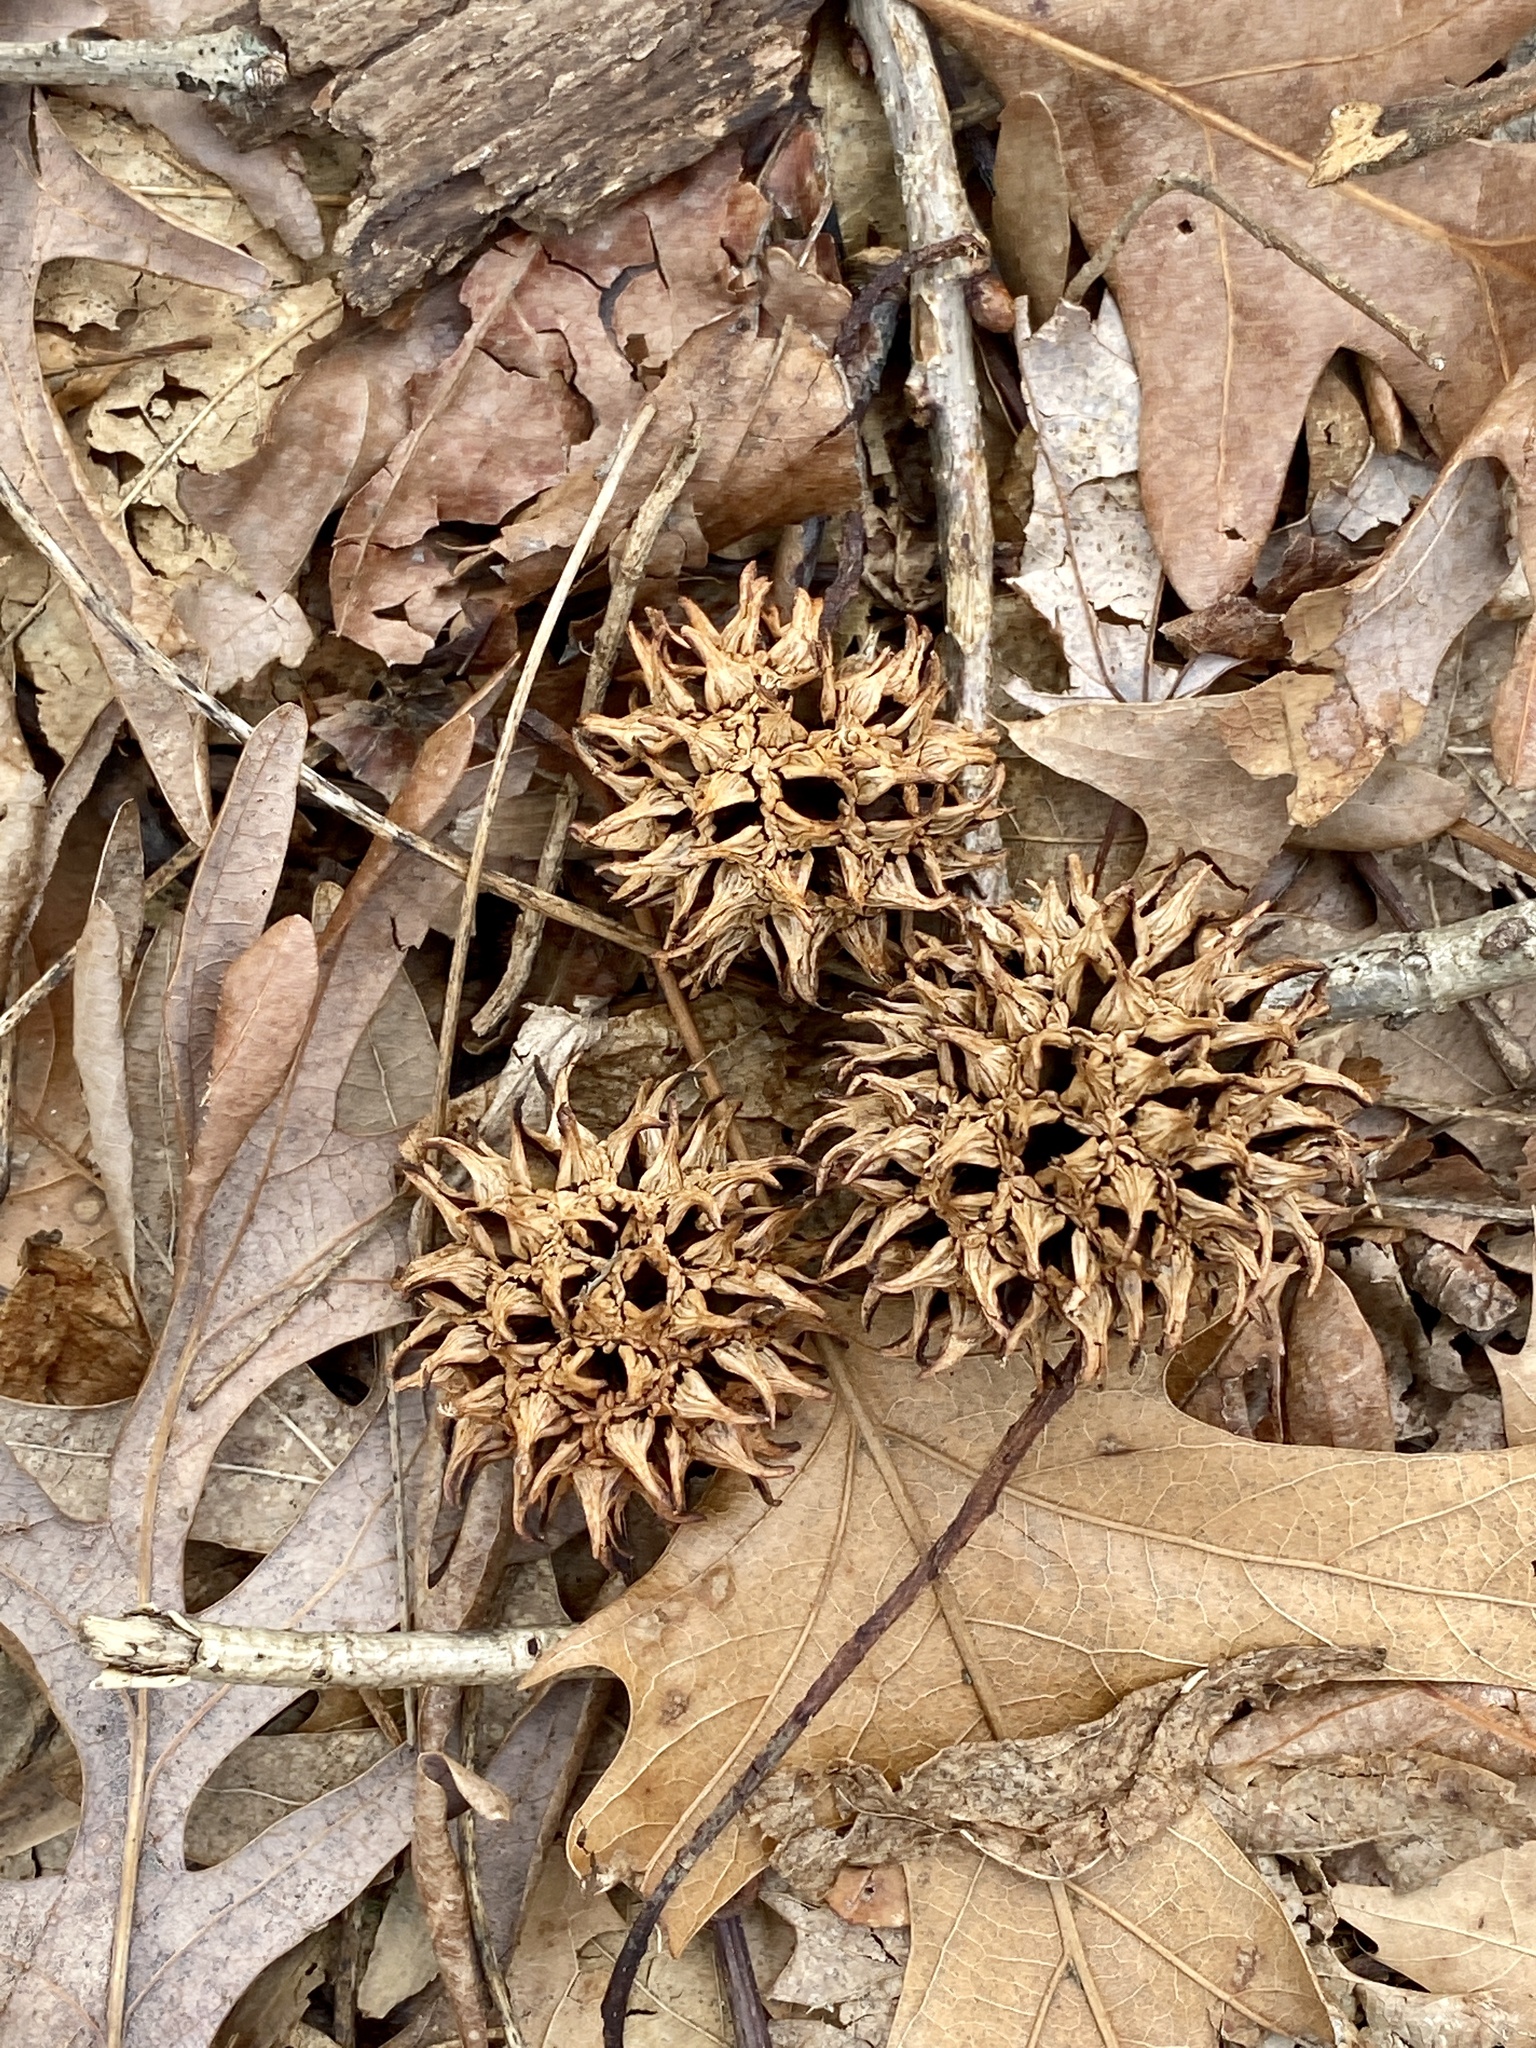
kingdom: Plantae
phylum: Tracheophyta
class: Magnoliopsida
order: Saxifragales
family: Altingiaceae
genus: Liquidambar
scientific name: Liquidambar styraciflua
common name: Sweet gum
